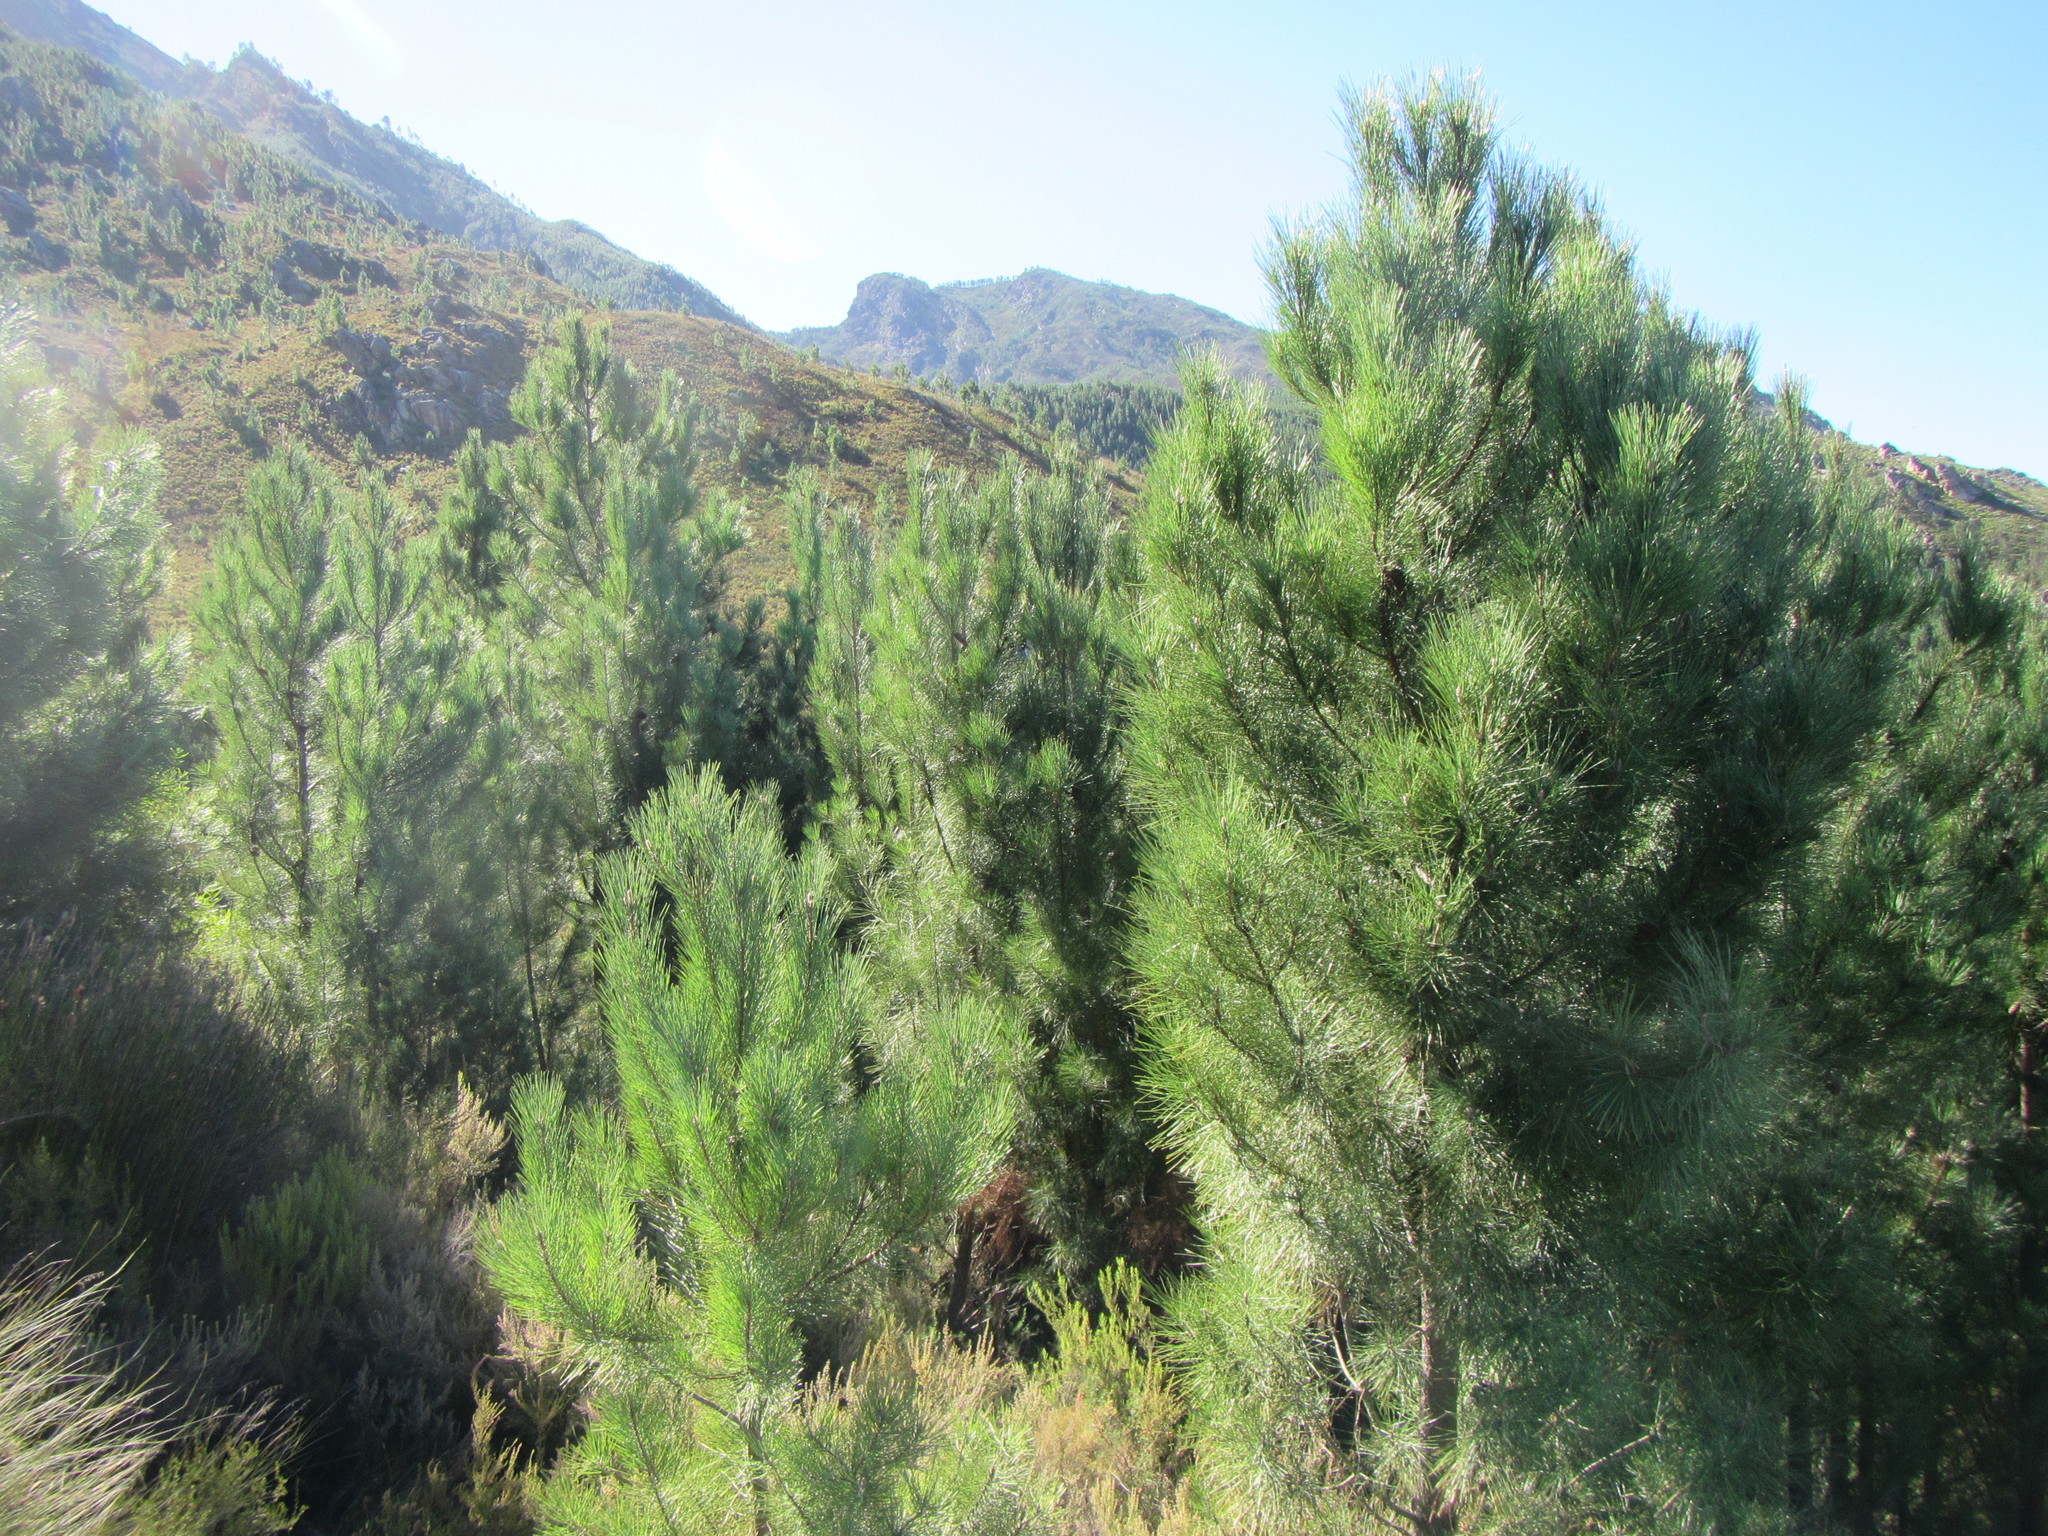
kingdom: Plantae
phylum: Tracheophyta
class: Pinopsida
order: Pinales
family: Pinaceae
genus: Pinus
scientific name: Pinus pinaster
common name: Maritime pine
